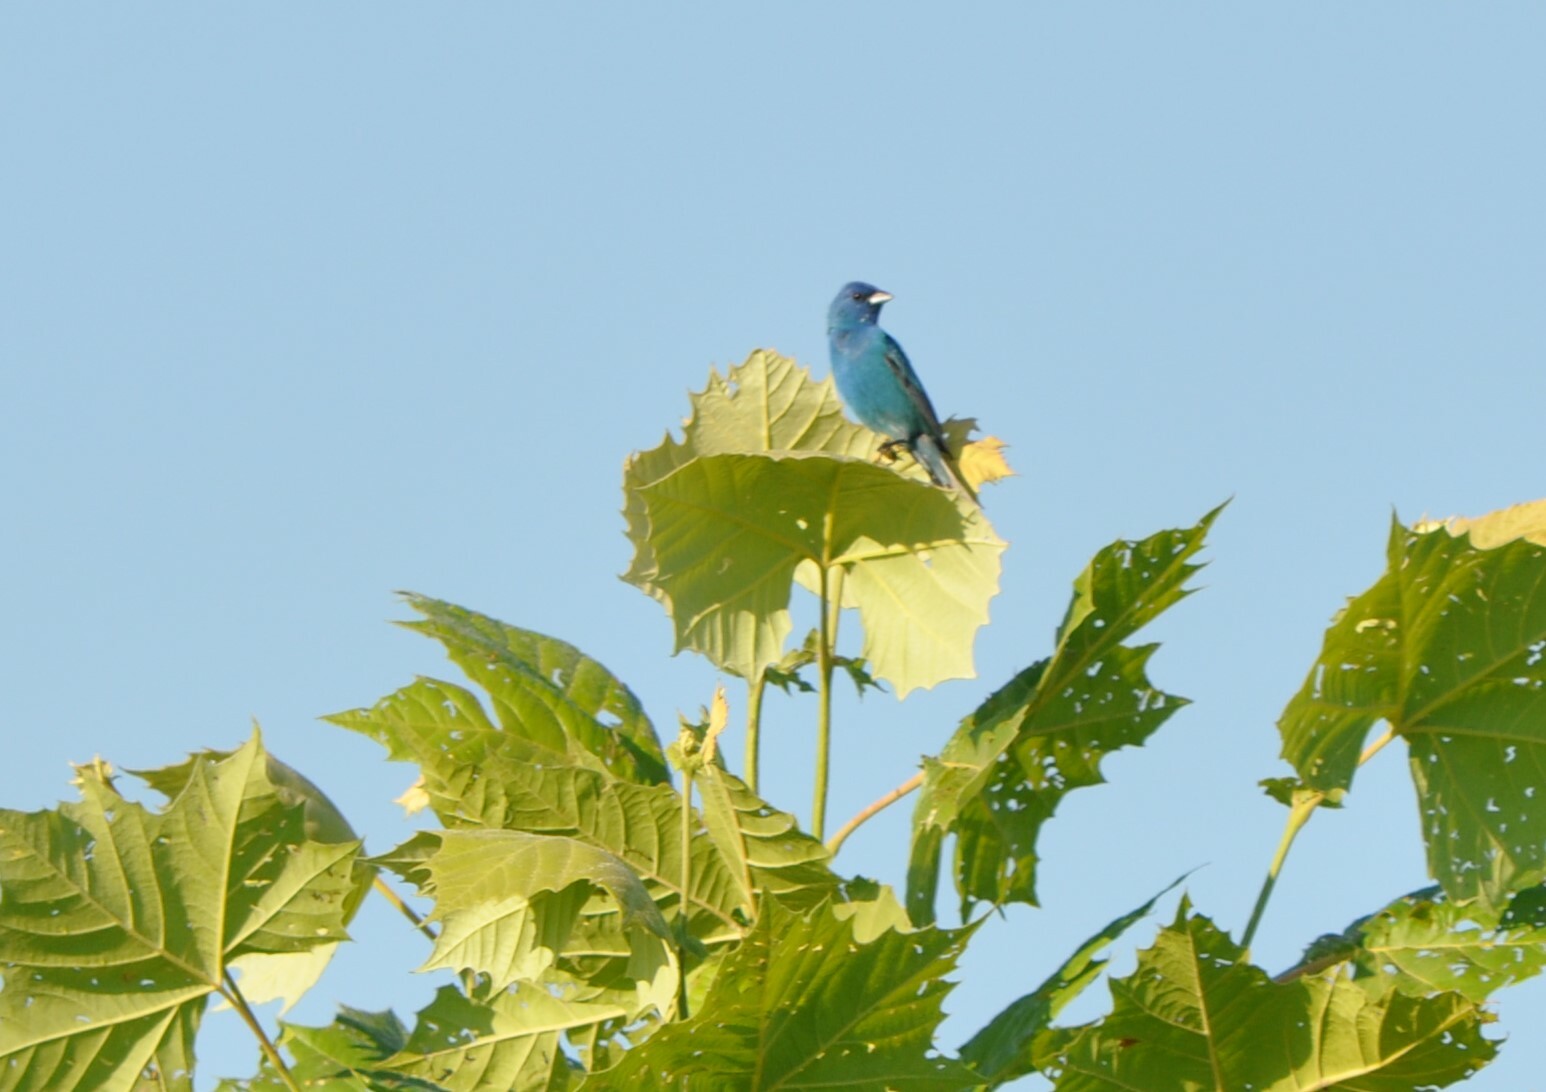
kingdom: Animalia
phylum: Chordata
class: Aves
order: Passeriformes
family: Cardinalidae
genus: Passerina
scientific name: Passerina cyanea
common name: Indigo bunting
